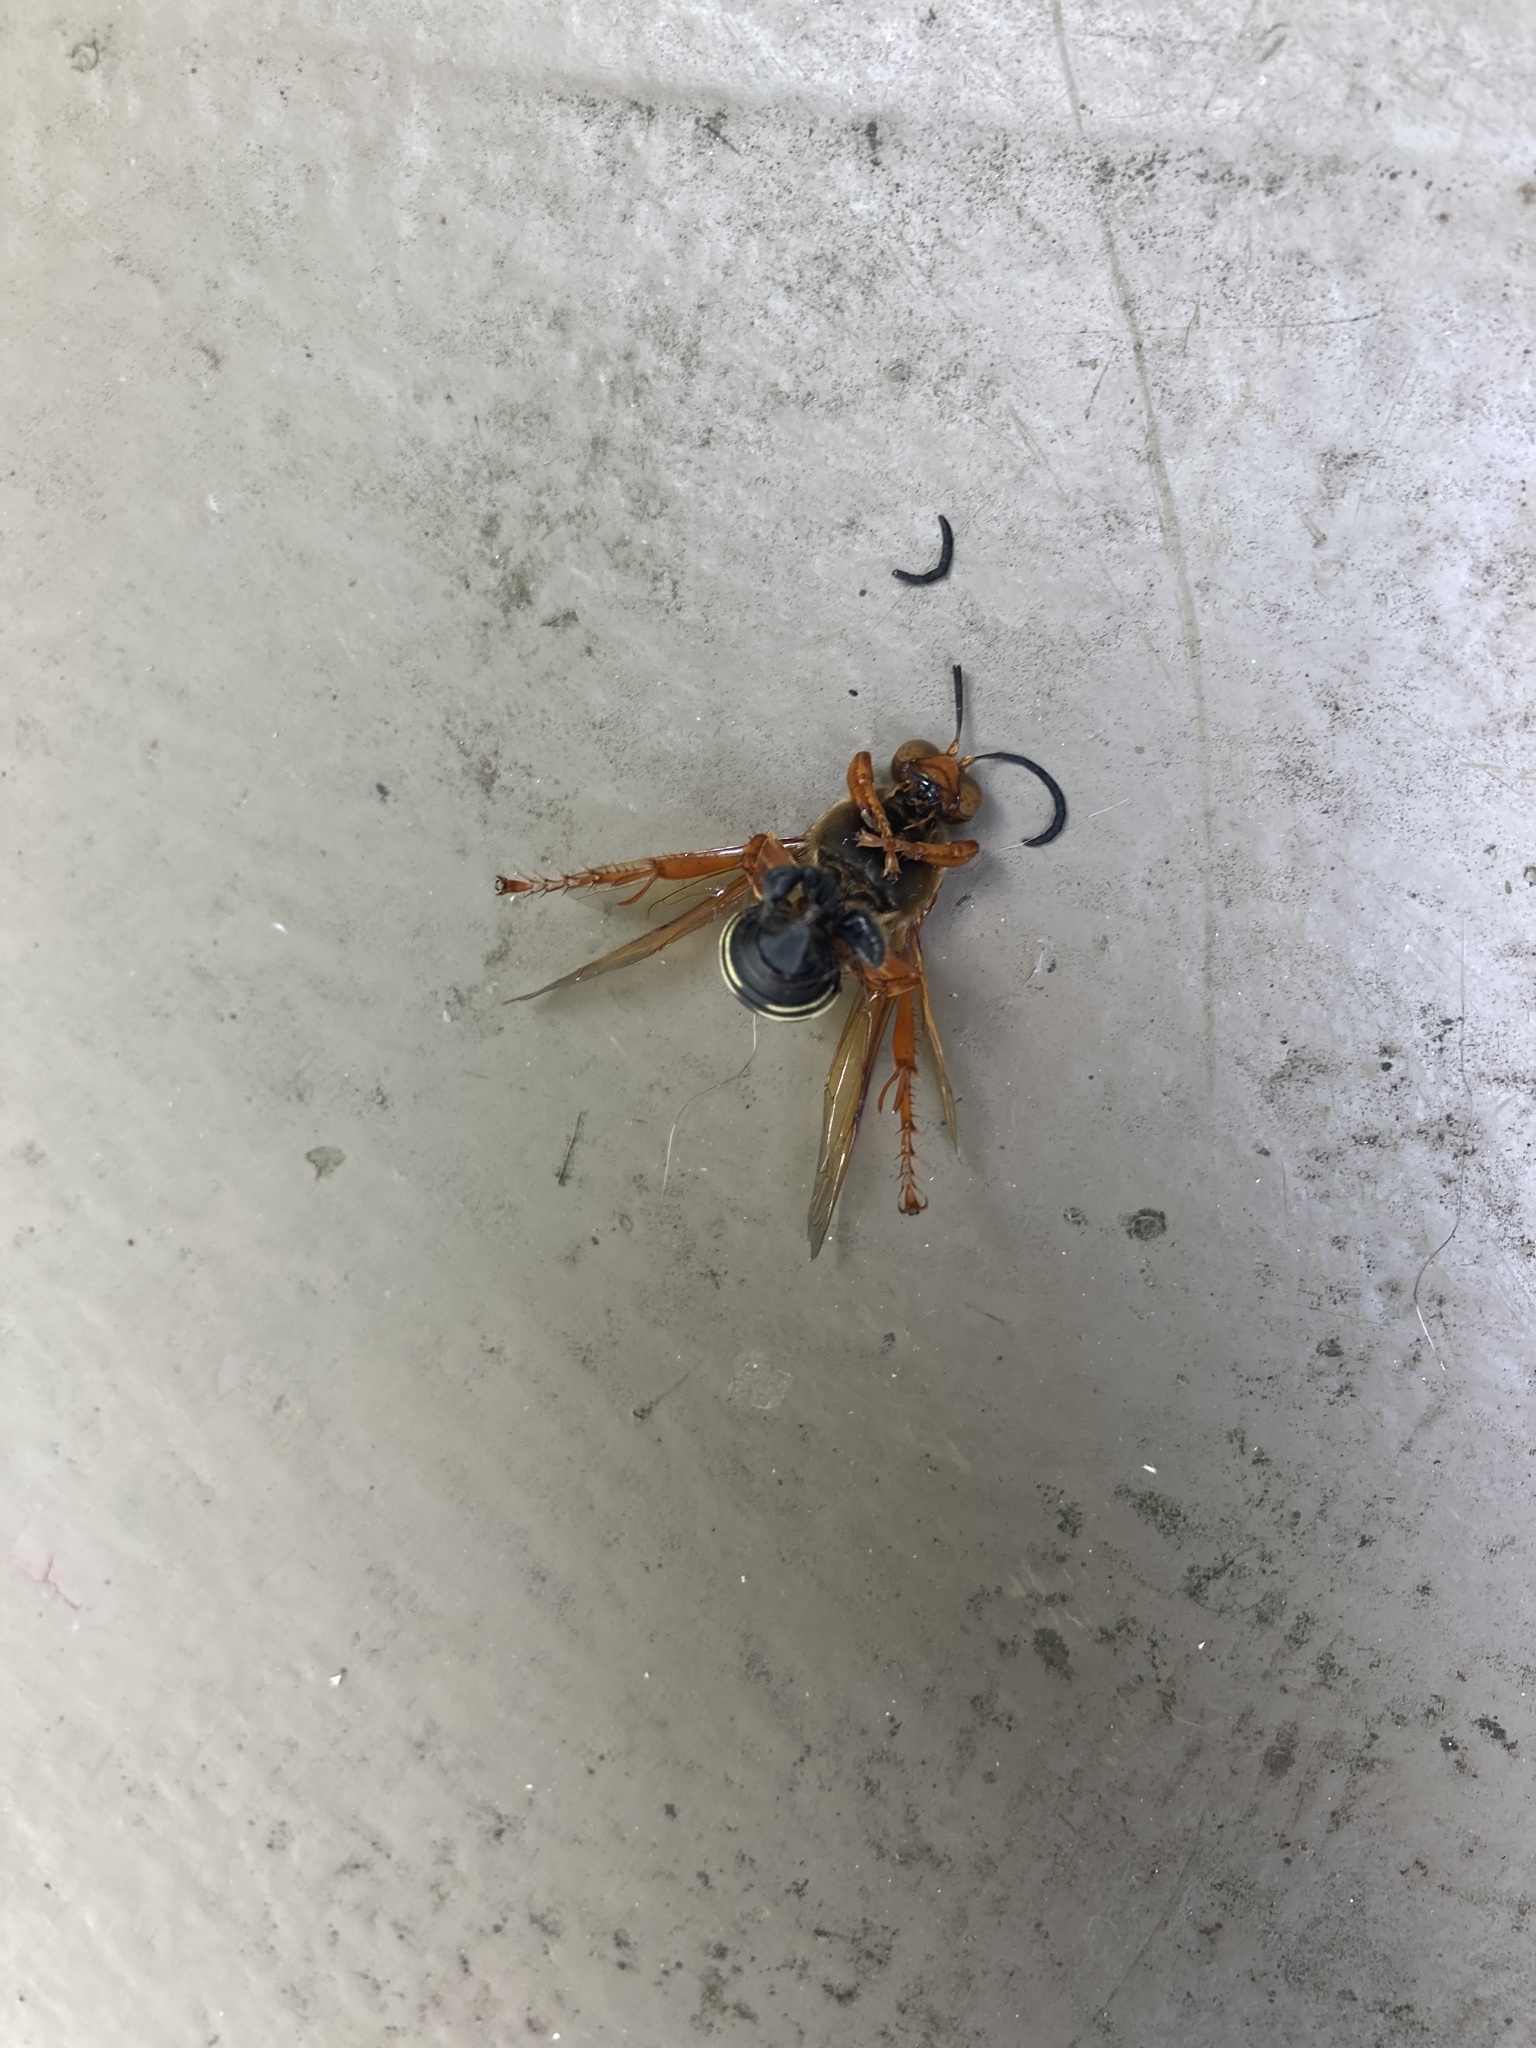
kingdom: Animalia
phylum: Arthropoda
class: Insecta
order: Hymenoptera
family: Crabronidae
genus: Sphecius
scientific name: Sphecius speciosus
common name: Cicada killer
